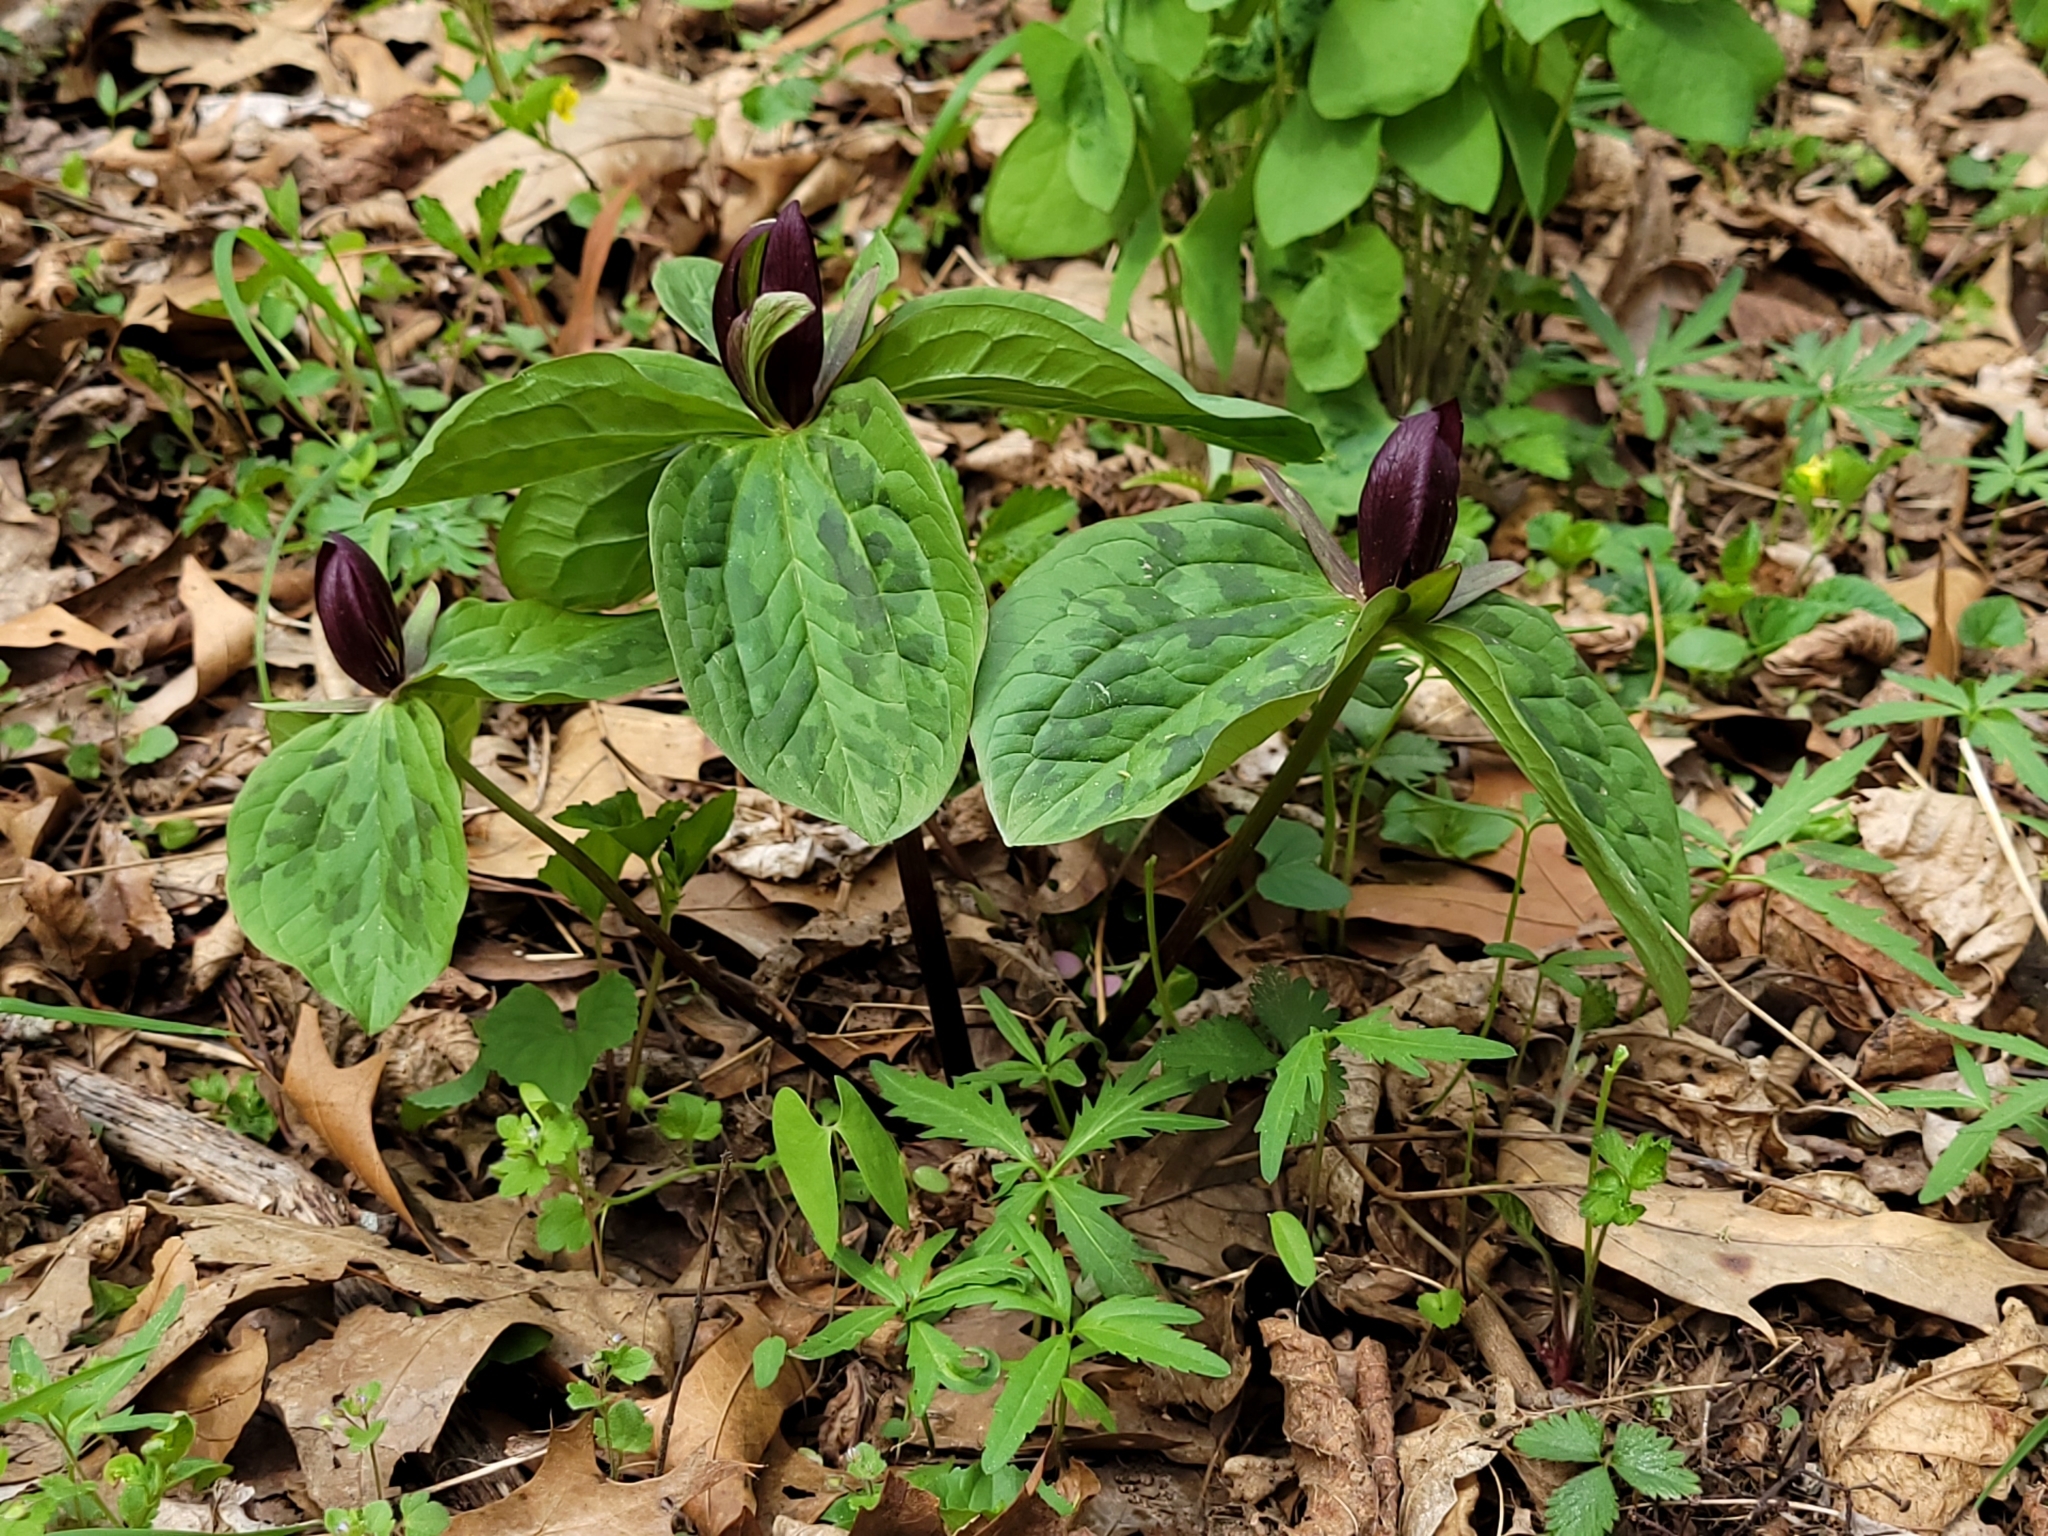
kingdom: Plantae
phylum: Tracheophyta
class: Liliopsida
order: Liliales
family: Melanthiaceae
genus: Trillium
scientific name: Trillium sessile
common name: Sessile trillium
